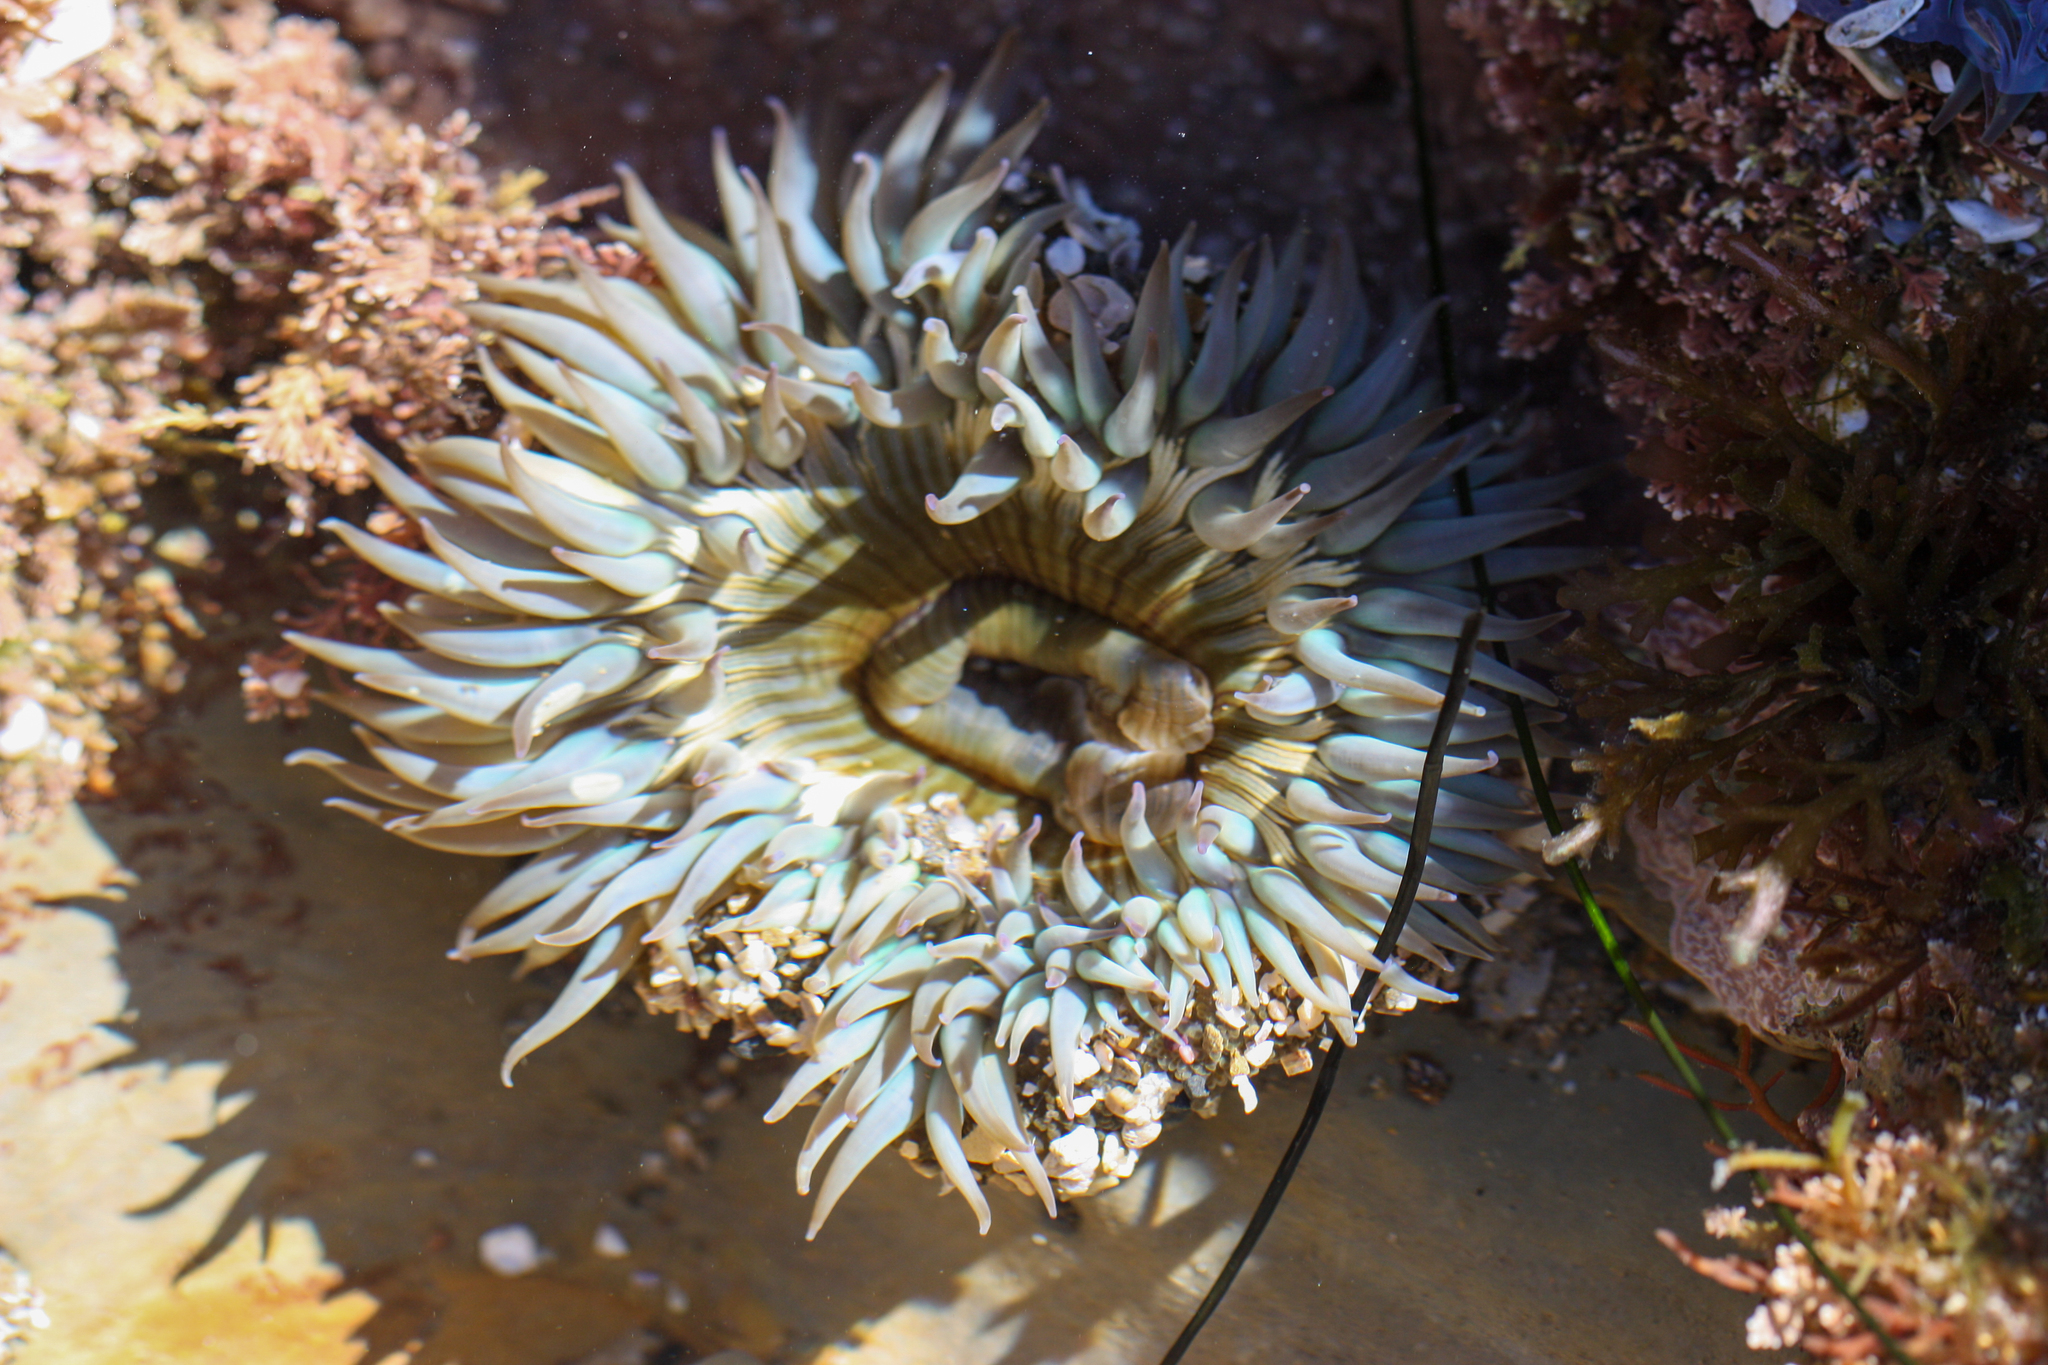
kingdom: Animalia
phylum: Cnidaria
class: Anthozoa
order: Actiniaria
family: Actiniidae
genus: Anthopleura
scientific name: Anthopleura sola
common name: Sun anemone
